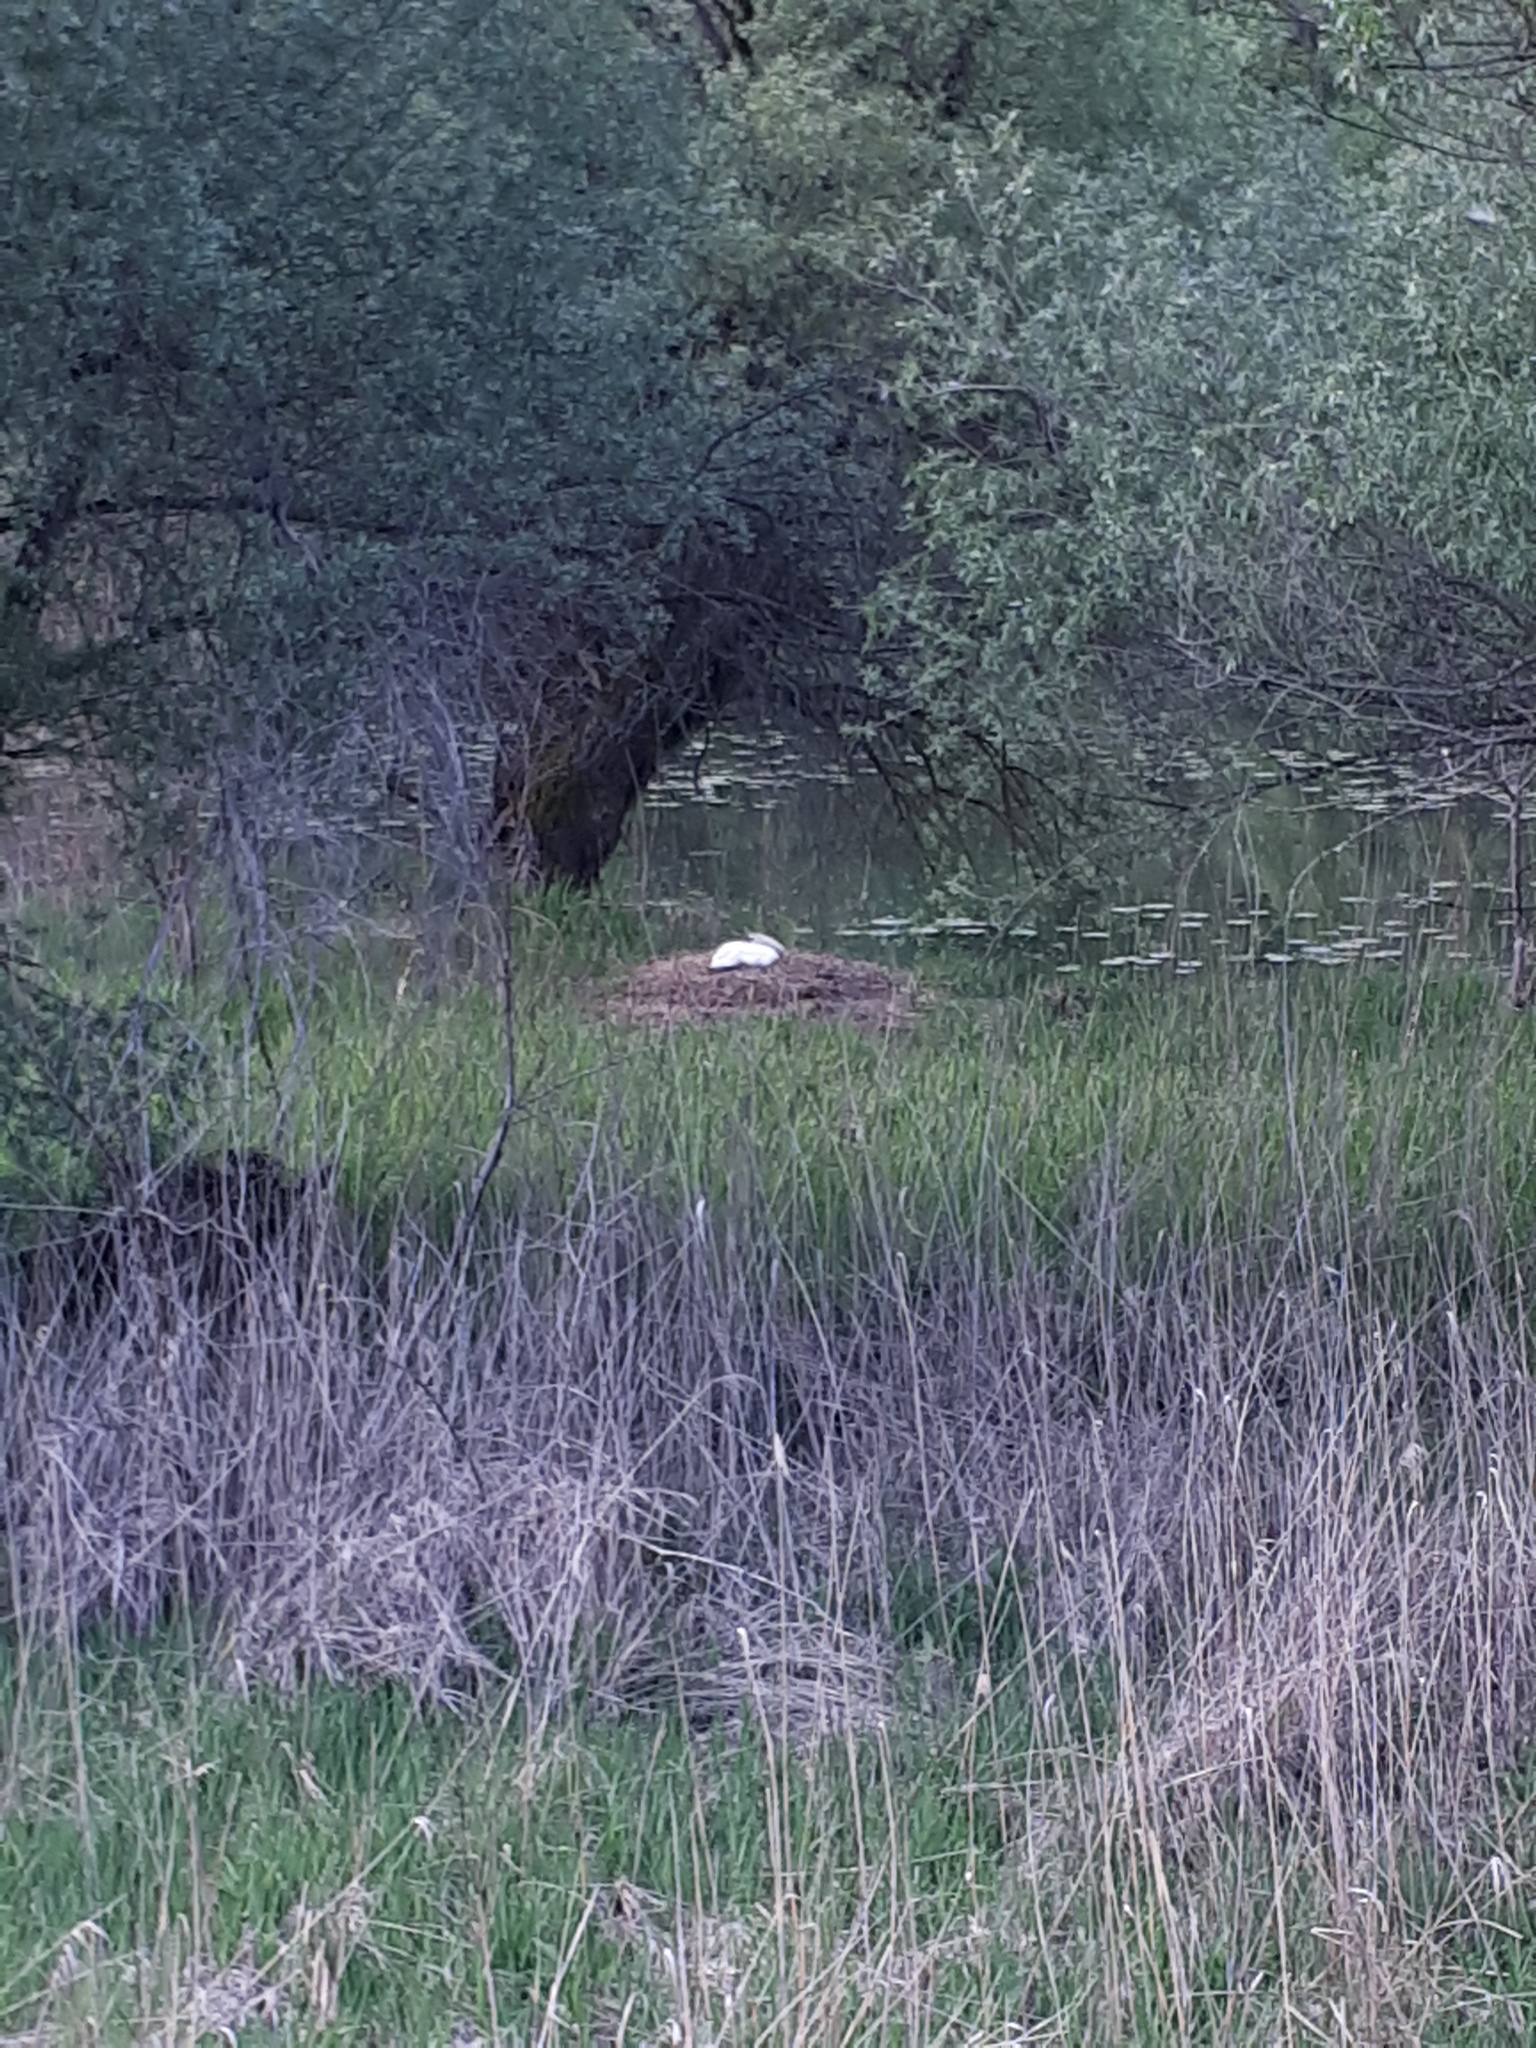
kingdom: Animalia
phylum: Chordata
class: Aves
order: Anseriformes
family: Anatidae
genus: Cygnus
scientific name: Cygnus olor
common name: Mute swan
